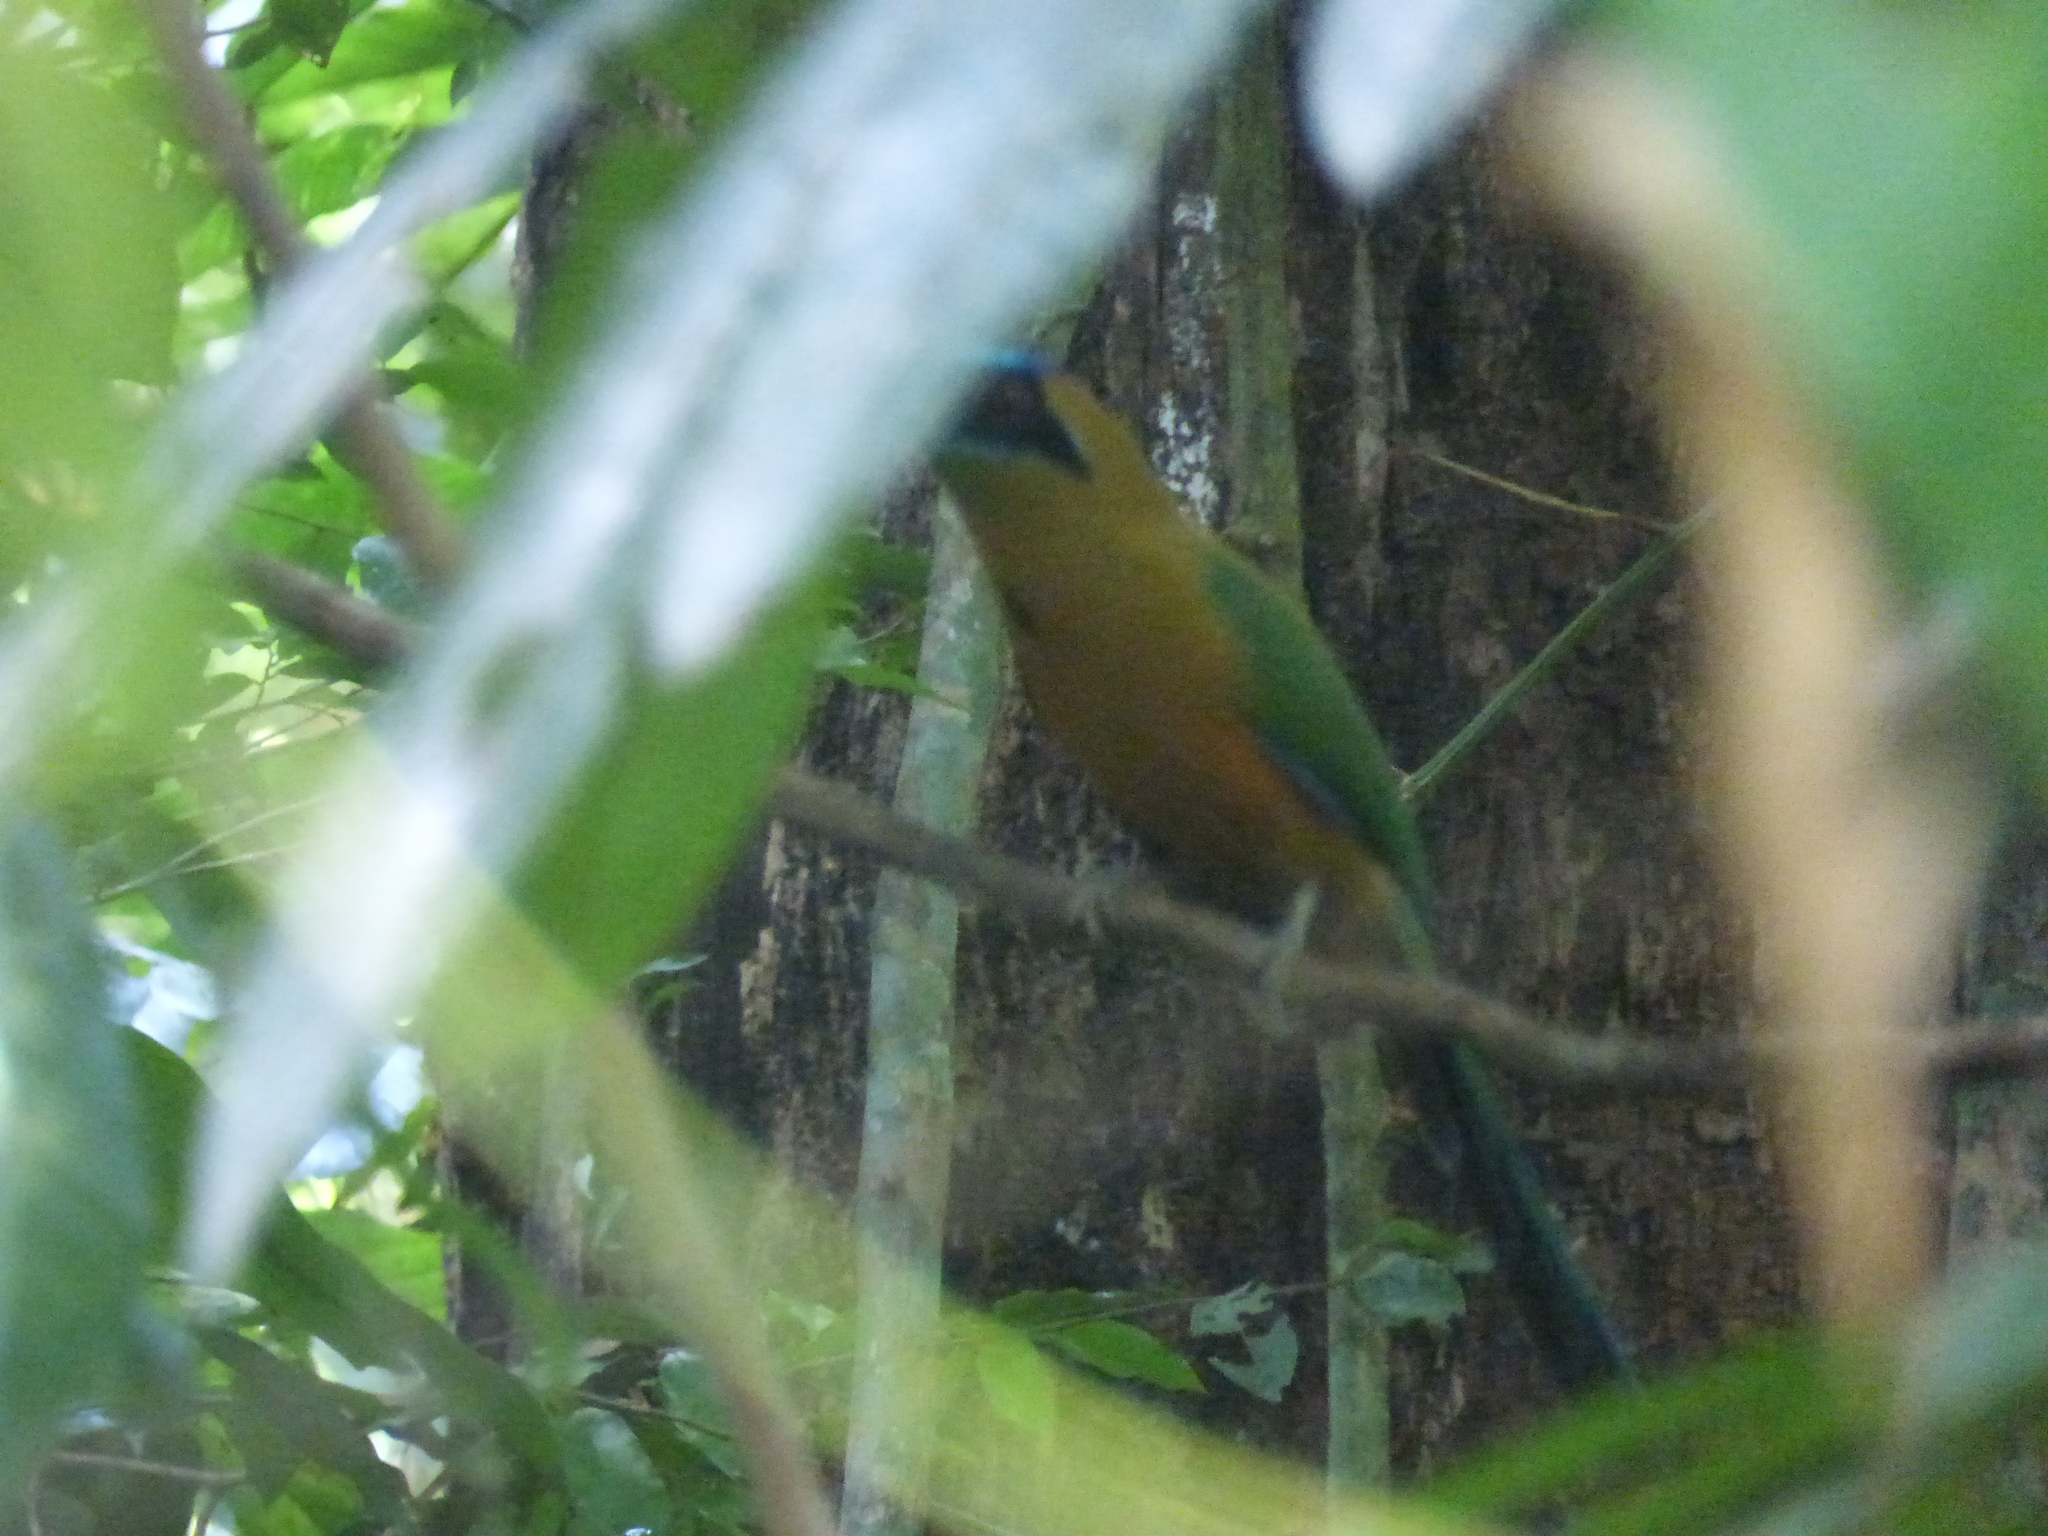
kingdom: Animalia
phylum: Chordata
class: Aves
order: Coraciiformes
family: Momotidae
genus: Momotus
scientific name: Momotus subrufescens
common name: Whooping motmot
